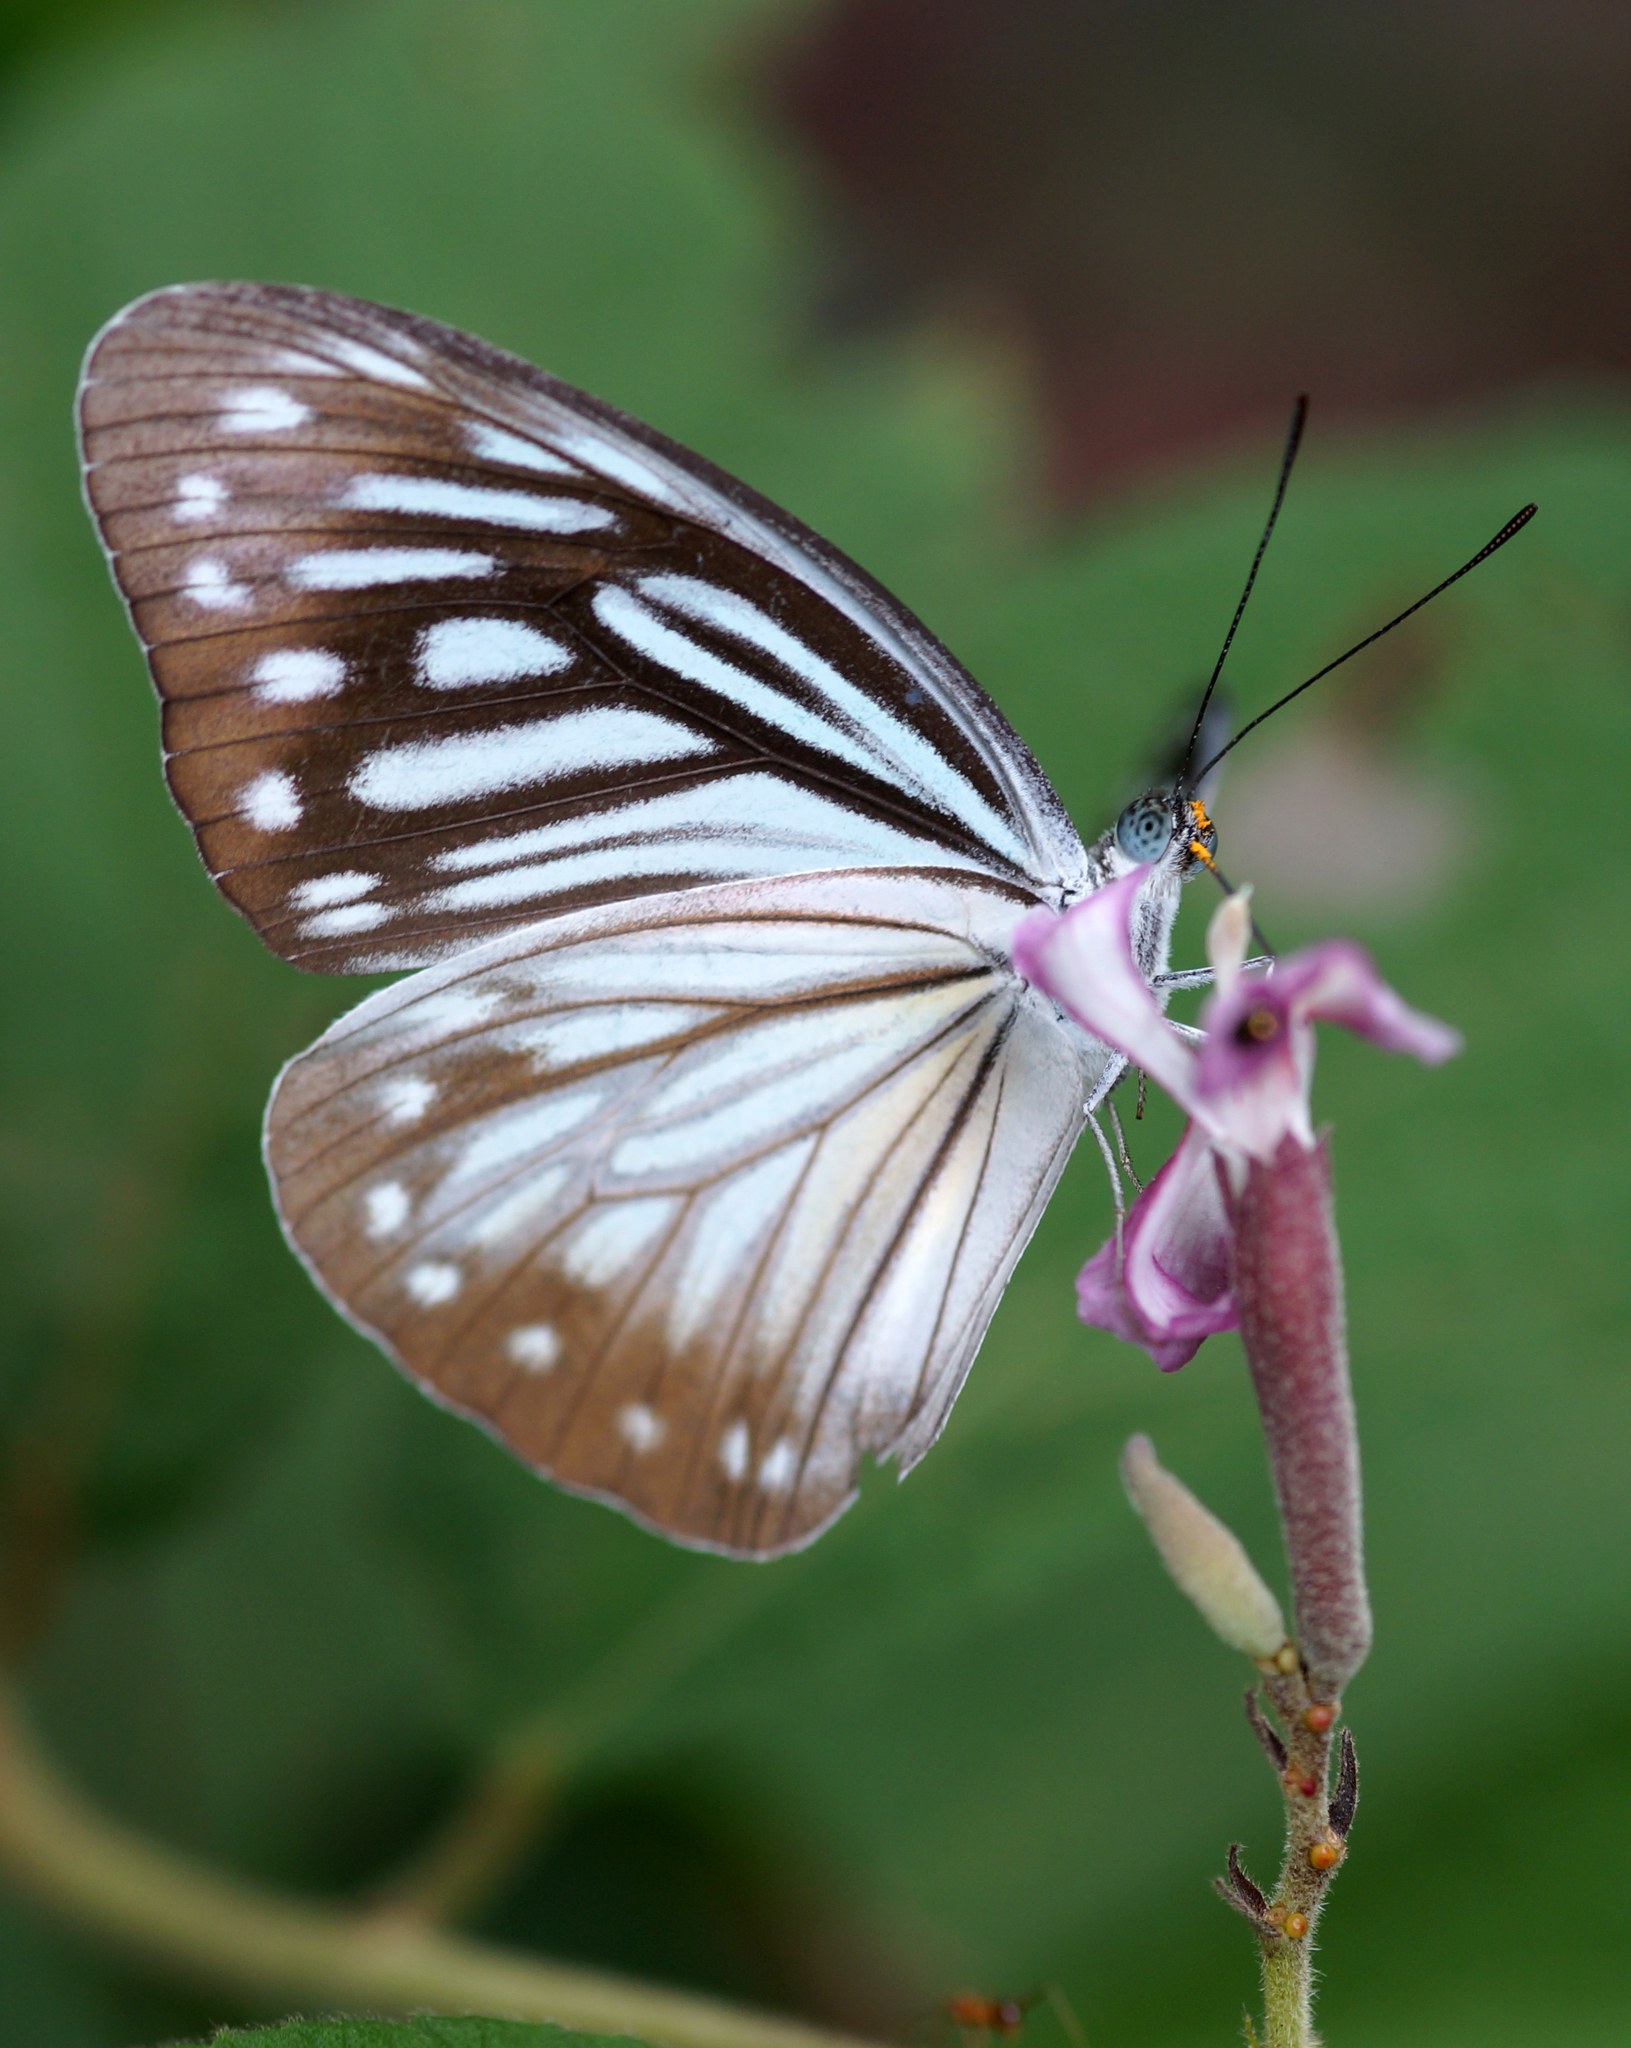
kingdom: Animalia
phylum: Arthropoda
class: Insecta
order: Lepidoptera
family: Pieridae
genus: Pareronia
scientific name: Pareronia hippia
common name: Indian wanderer
